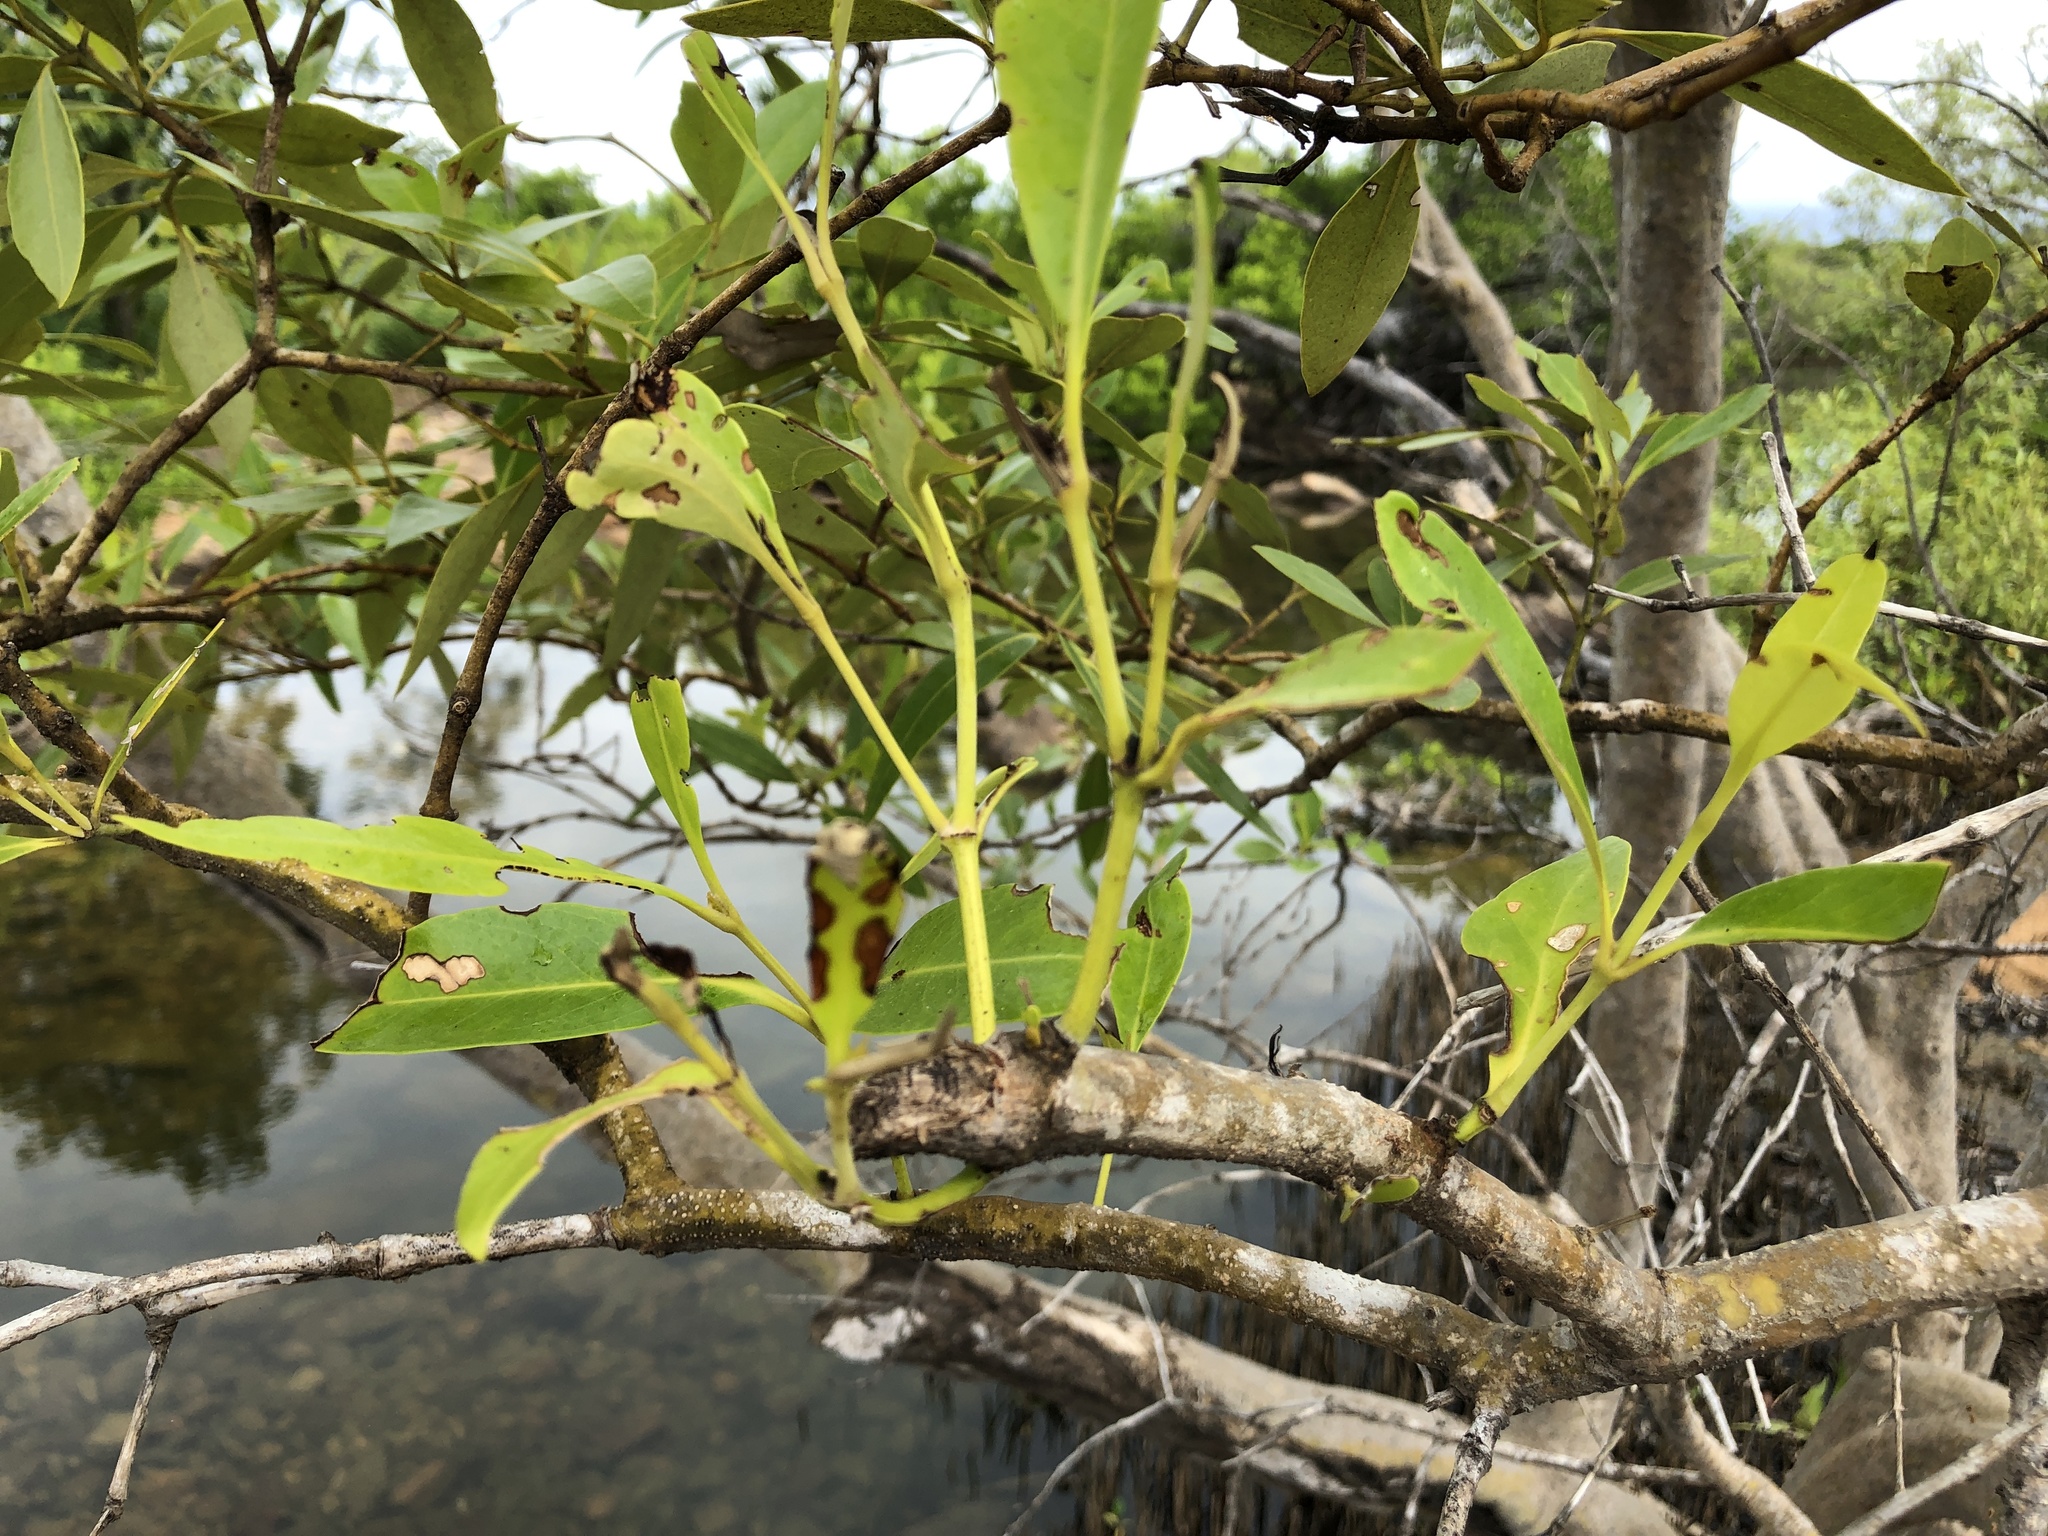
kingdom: Plantae
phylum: Tracheophyta
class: Magnoliopsida
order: Lamiales
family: Acanthaceae
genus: Avicennia
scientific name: Avicennia marina
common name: Gray mangrove
